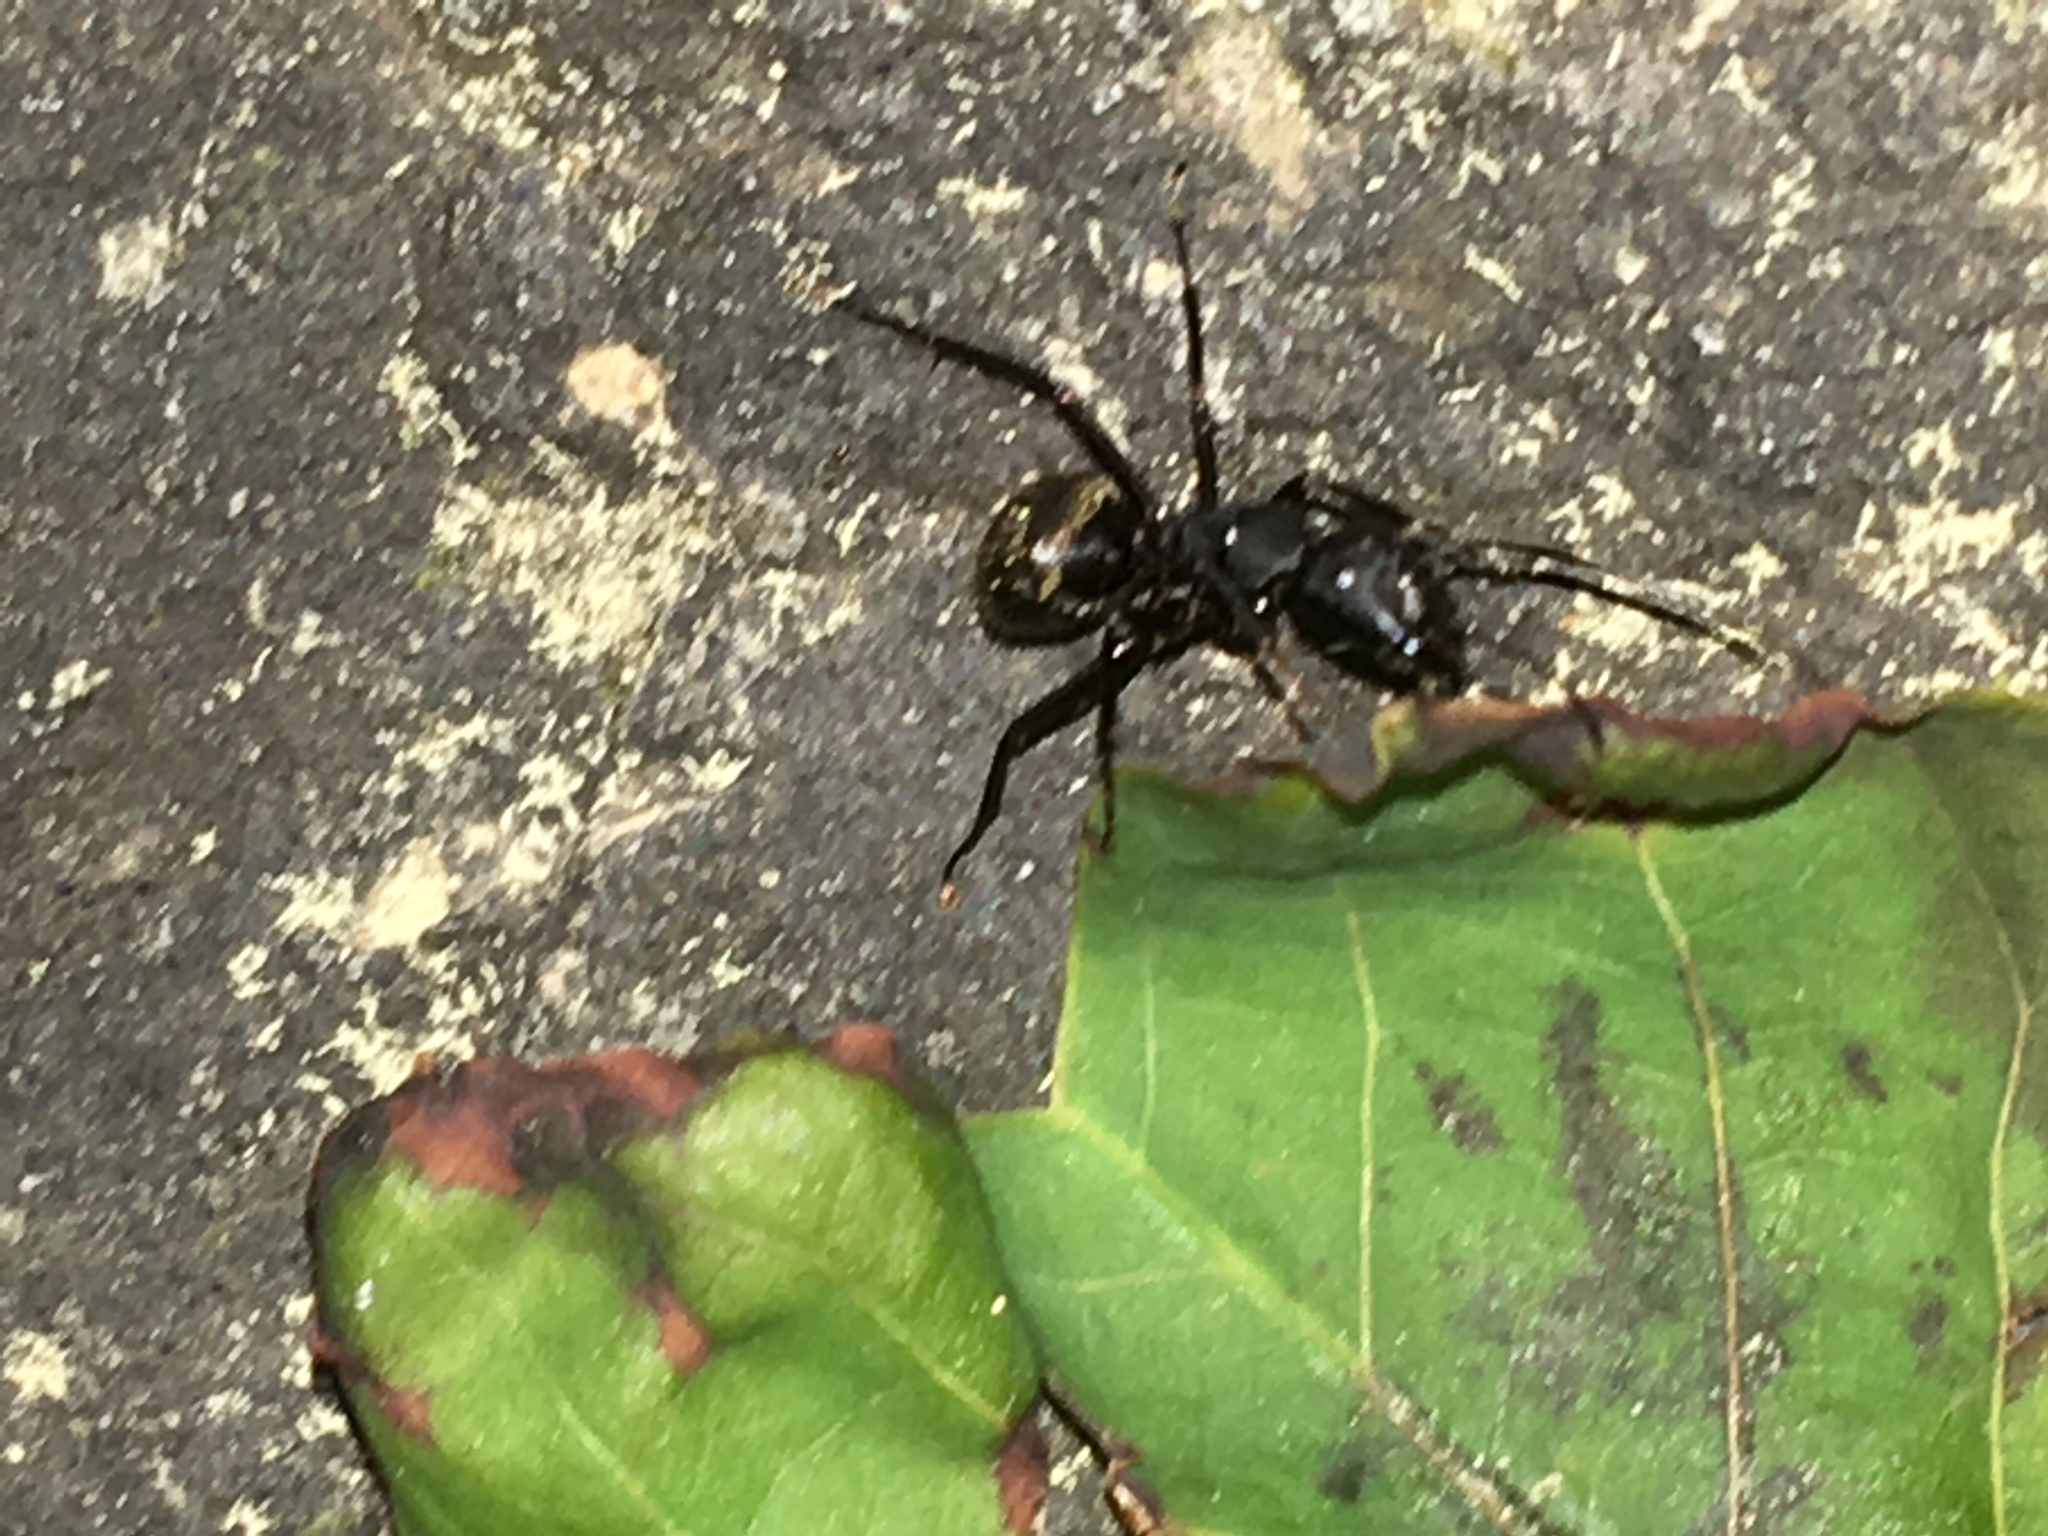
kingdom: Animalia
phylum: Arthropoda
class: Insecta
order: Hymenoptera
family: Formicidae
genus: Camponotus
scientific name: Camponotus pennsylvanicus
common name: Black carpenter ant
